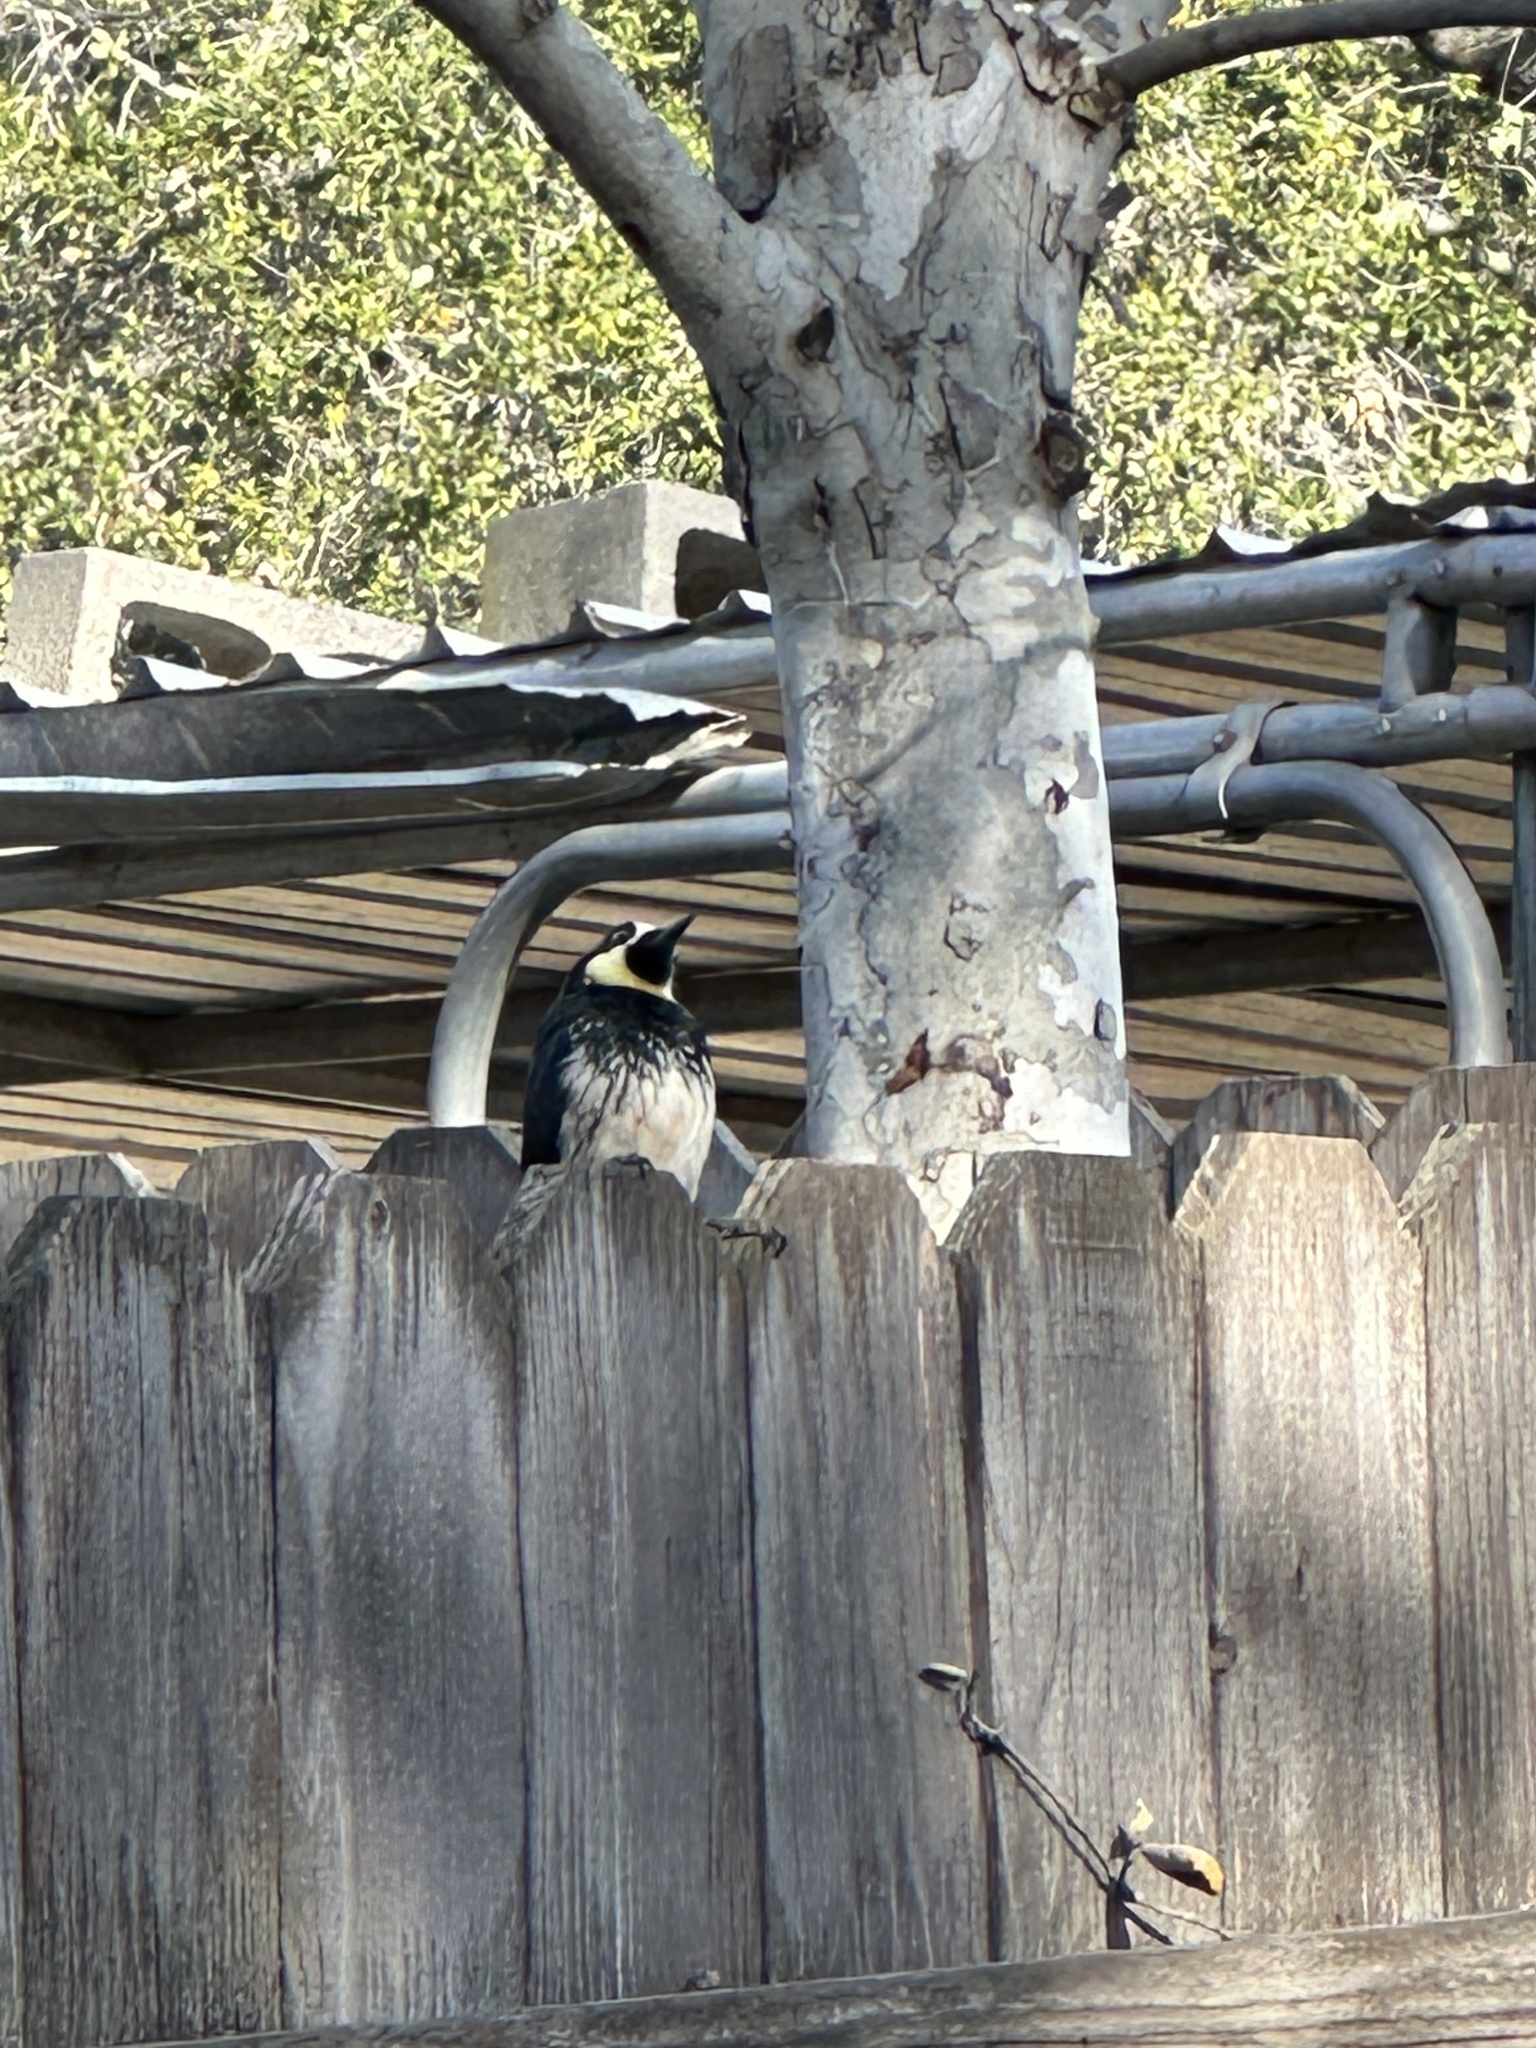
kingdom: Animalia
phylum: Chordata
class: Aves
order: Piciformes
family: Picidae
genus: Melanerpes
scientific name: Melanerpes formicivorus
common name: Acorn woodpecker
